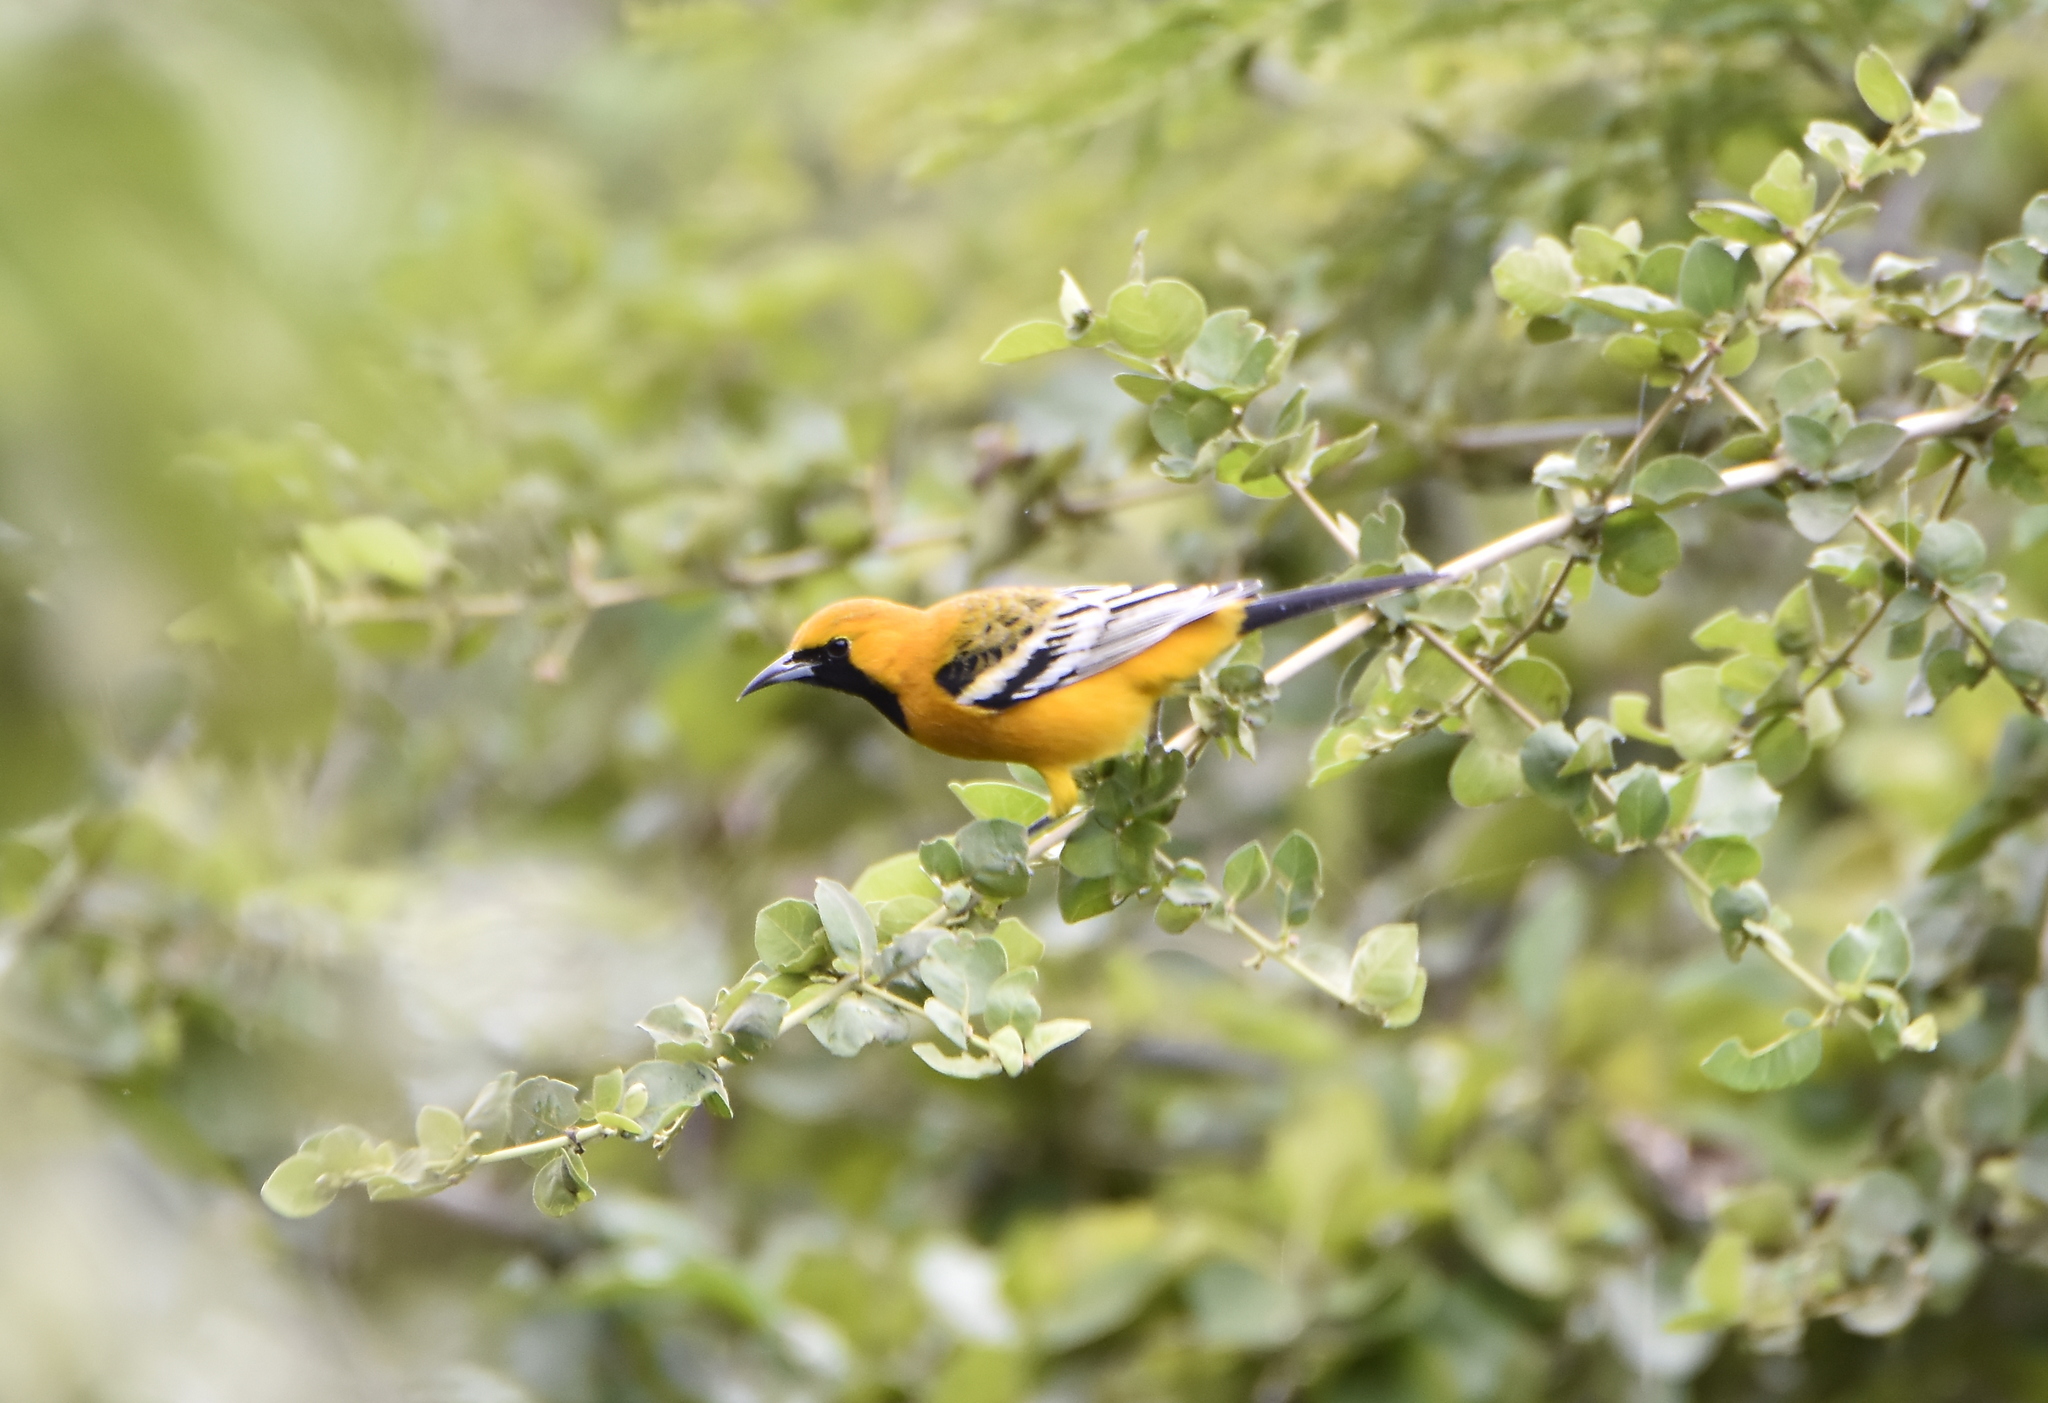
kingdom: Animalia
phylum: Chordata
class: Aves
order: Passeriformes
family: Icteridae
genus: Icterus
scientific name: Icterus pustulatus
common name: Streak-backed oriole
